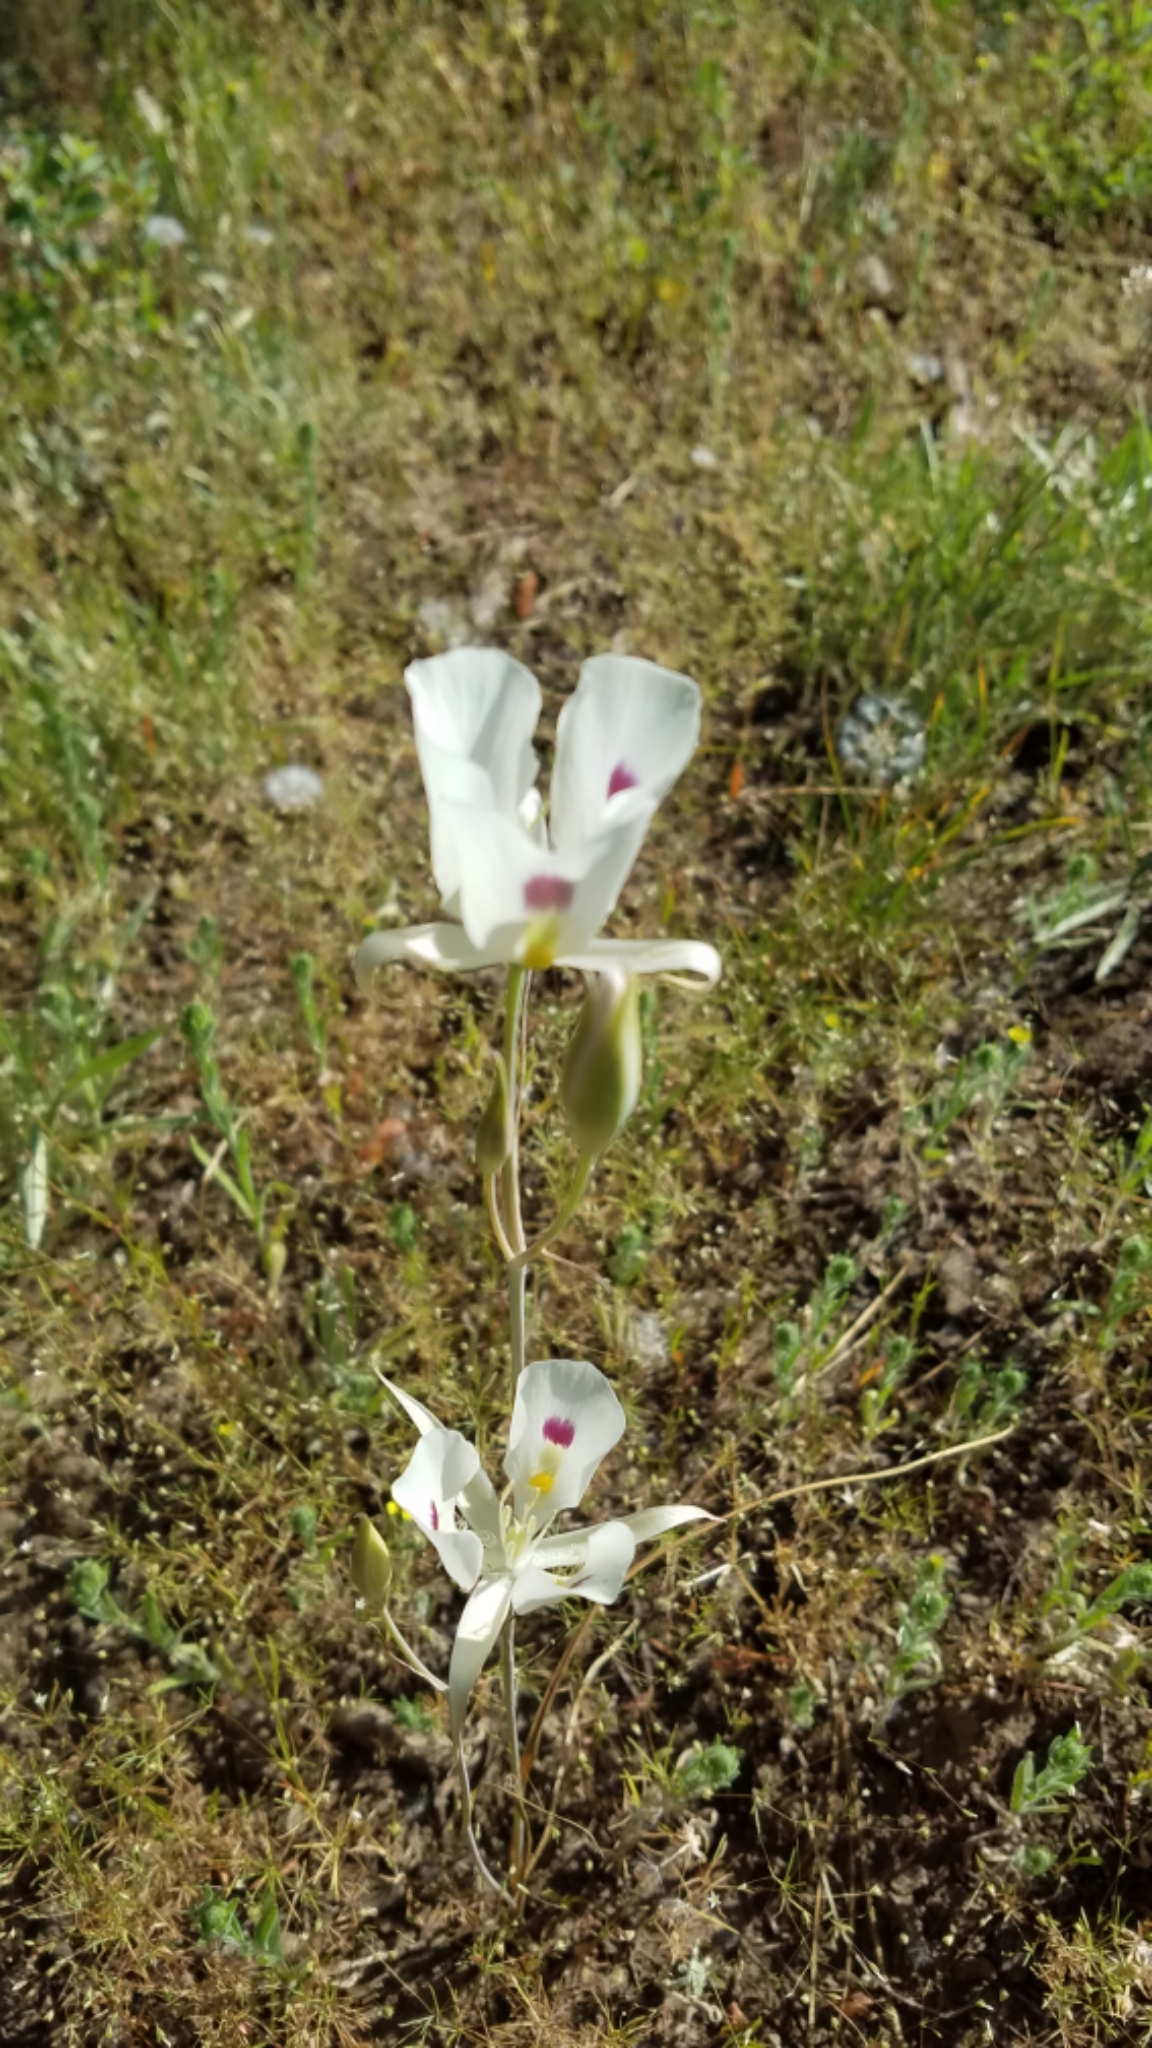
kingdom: Plantae
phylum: Tracheophyta
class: Liliopsida
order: Liliales
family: Liliaceae
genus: Calochortus
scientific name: Calochortus eurycarpus
